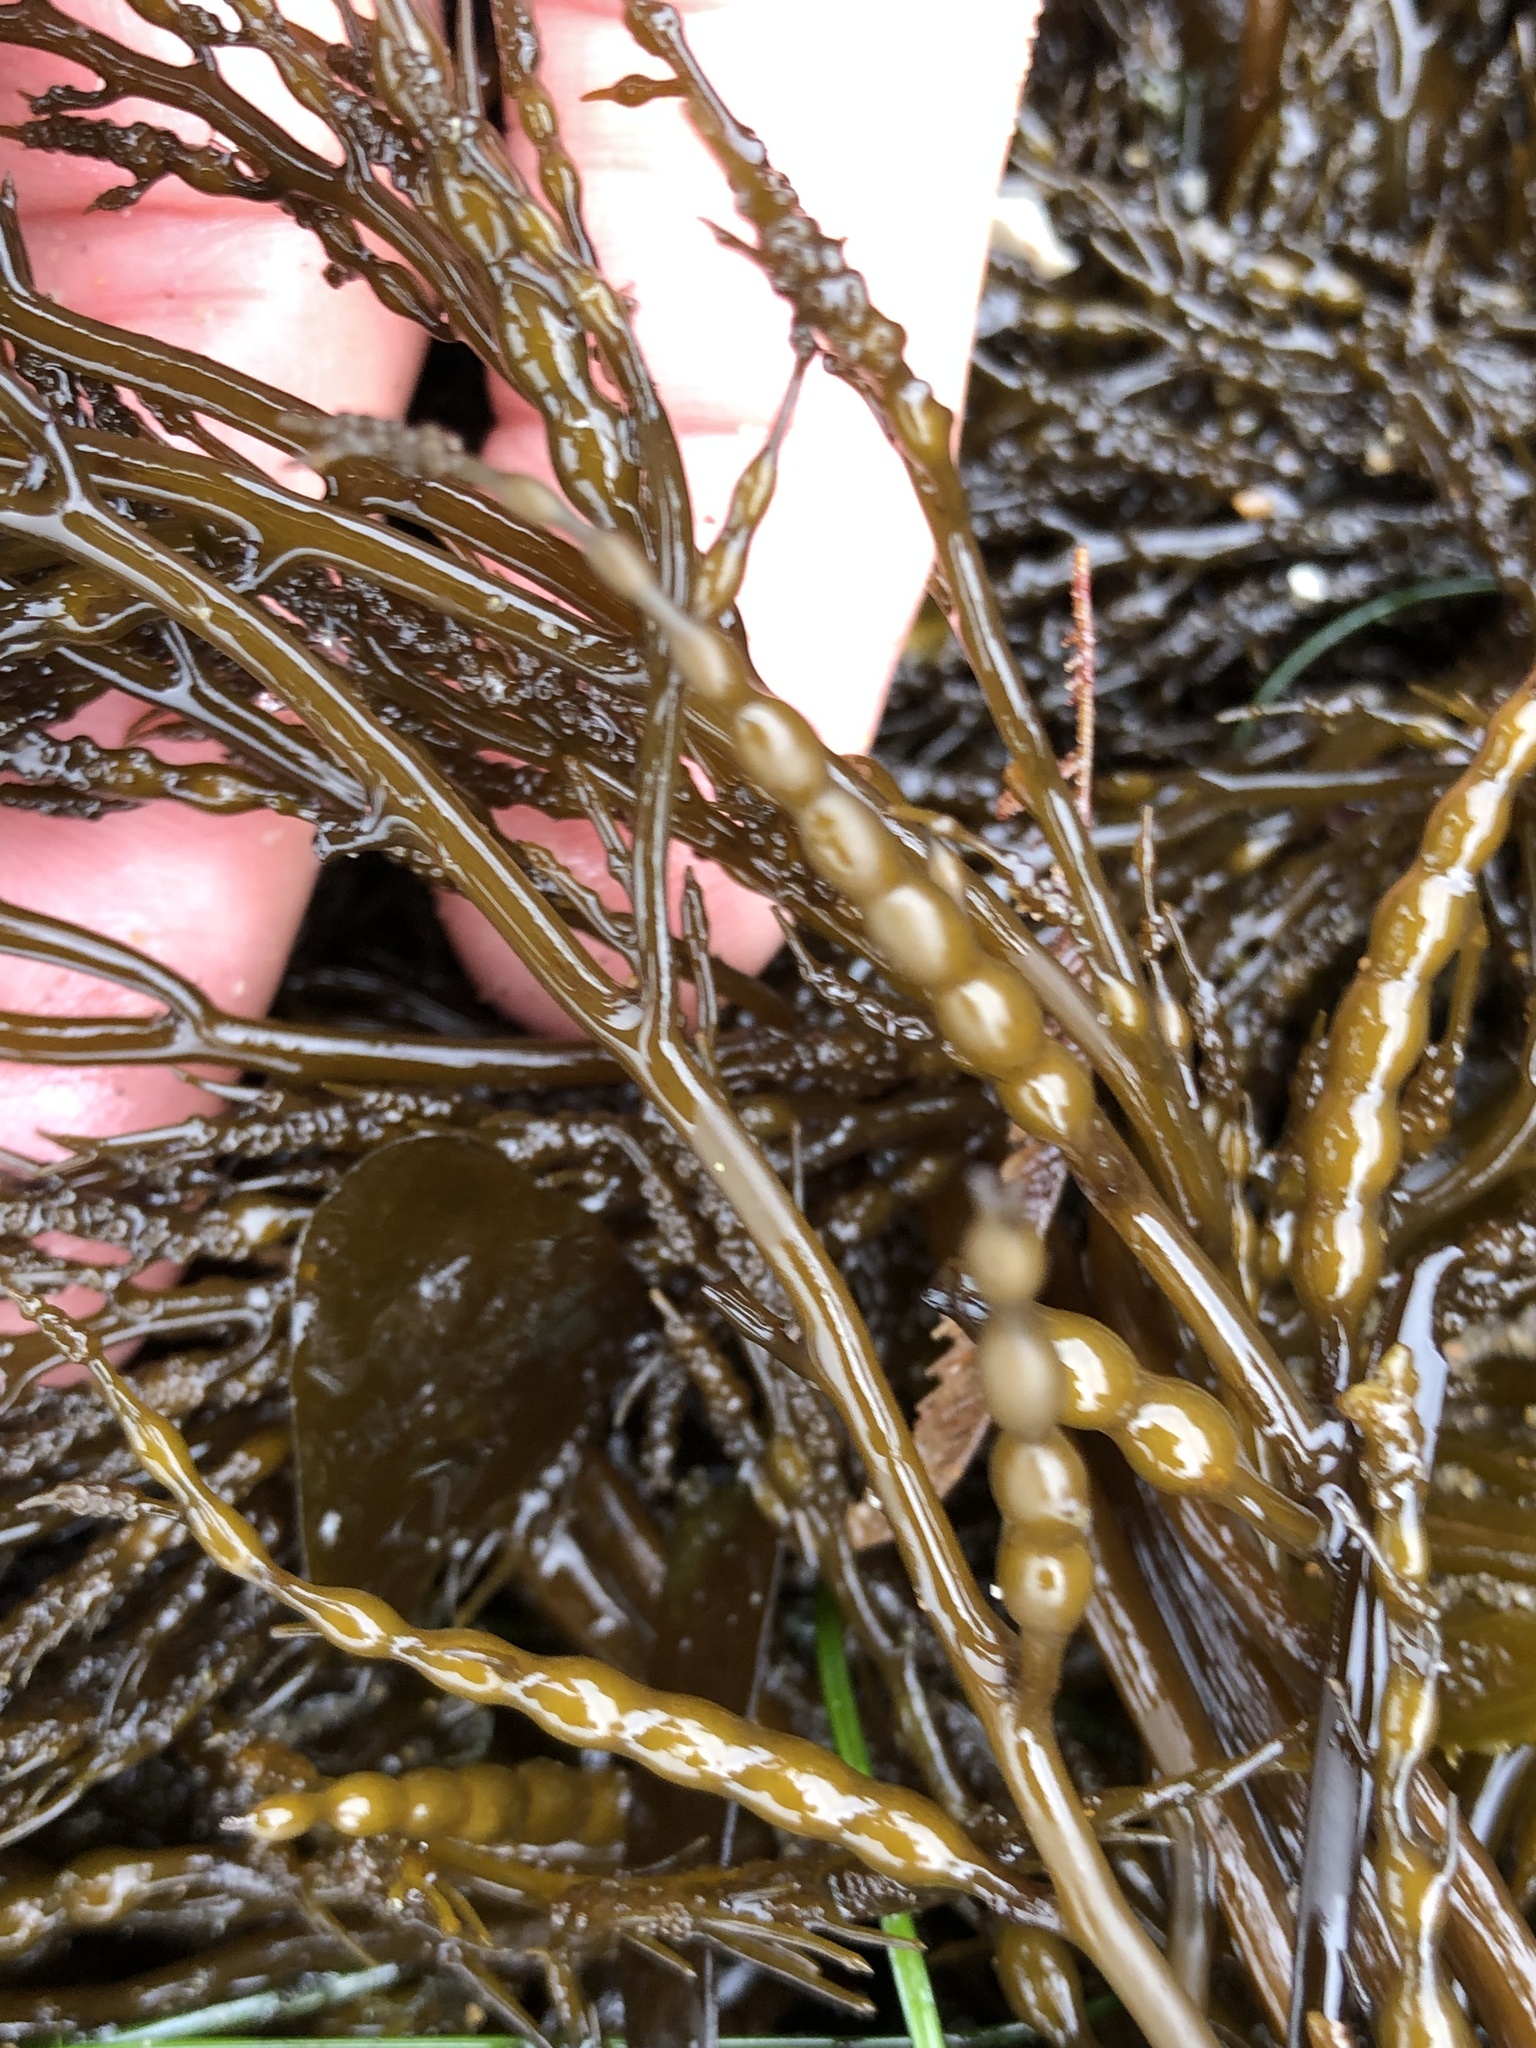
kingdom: Chromista
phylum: Ochrophyta
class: Phaeophyceae
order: Fucales
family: Sargassaceae
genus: Stephanocystis
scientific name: Stephanocystis
